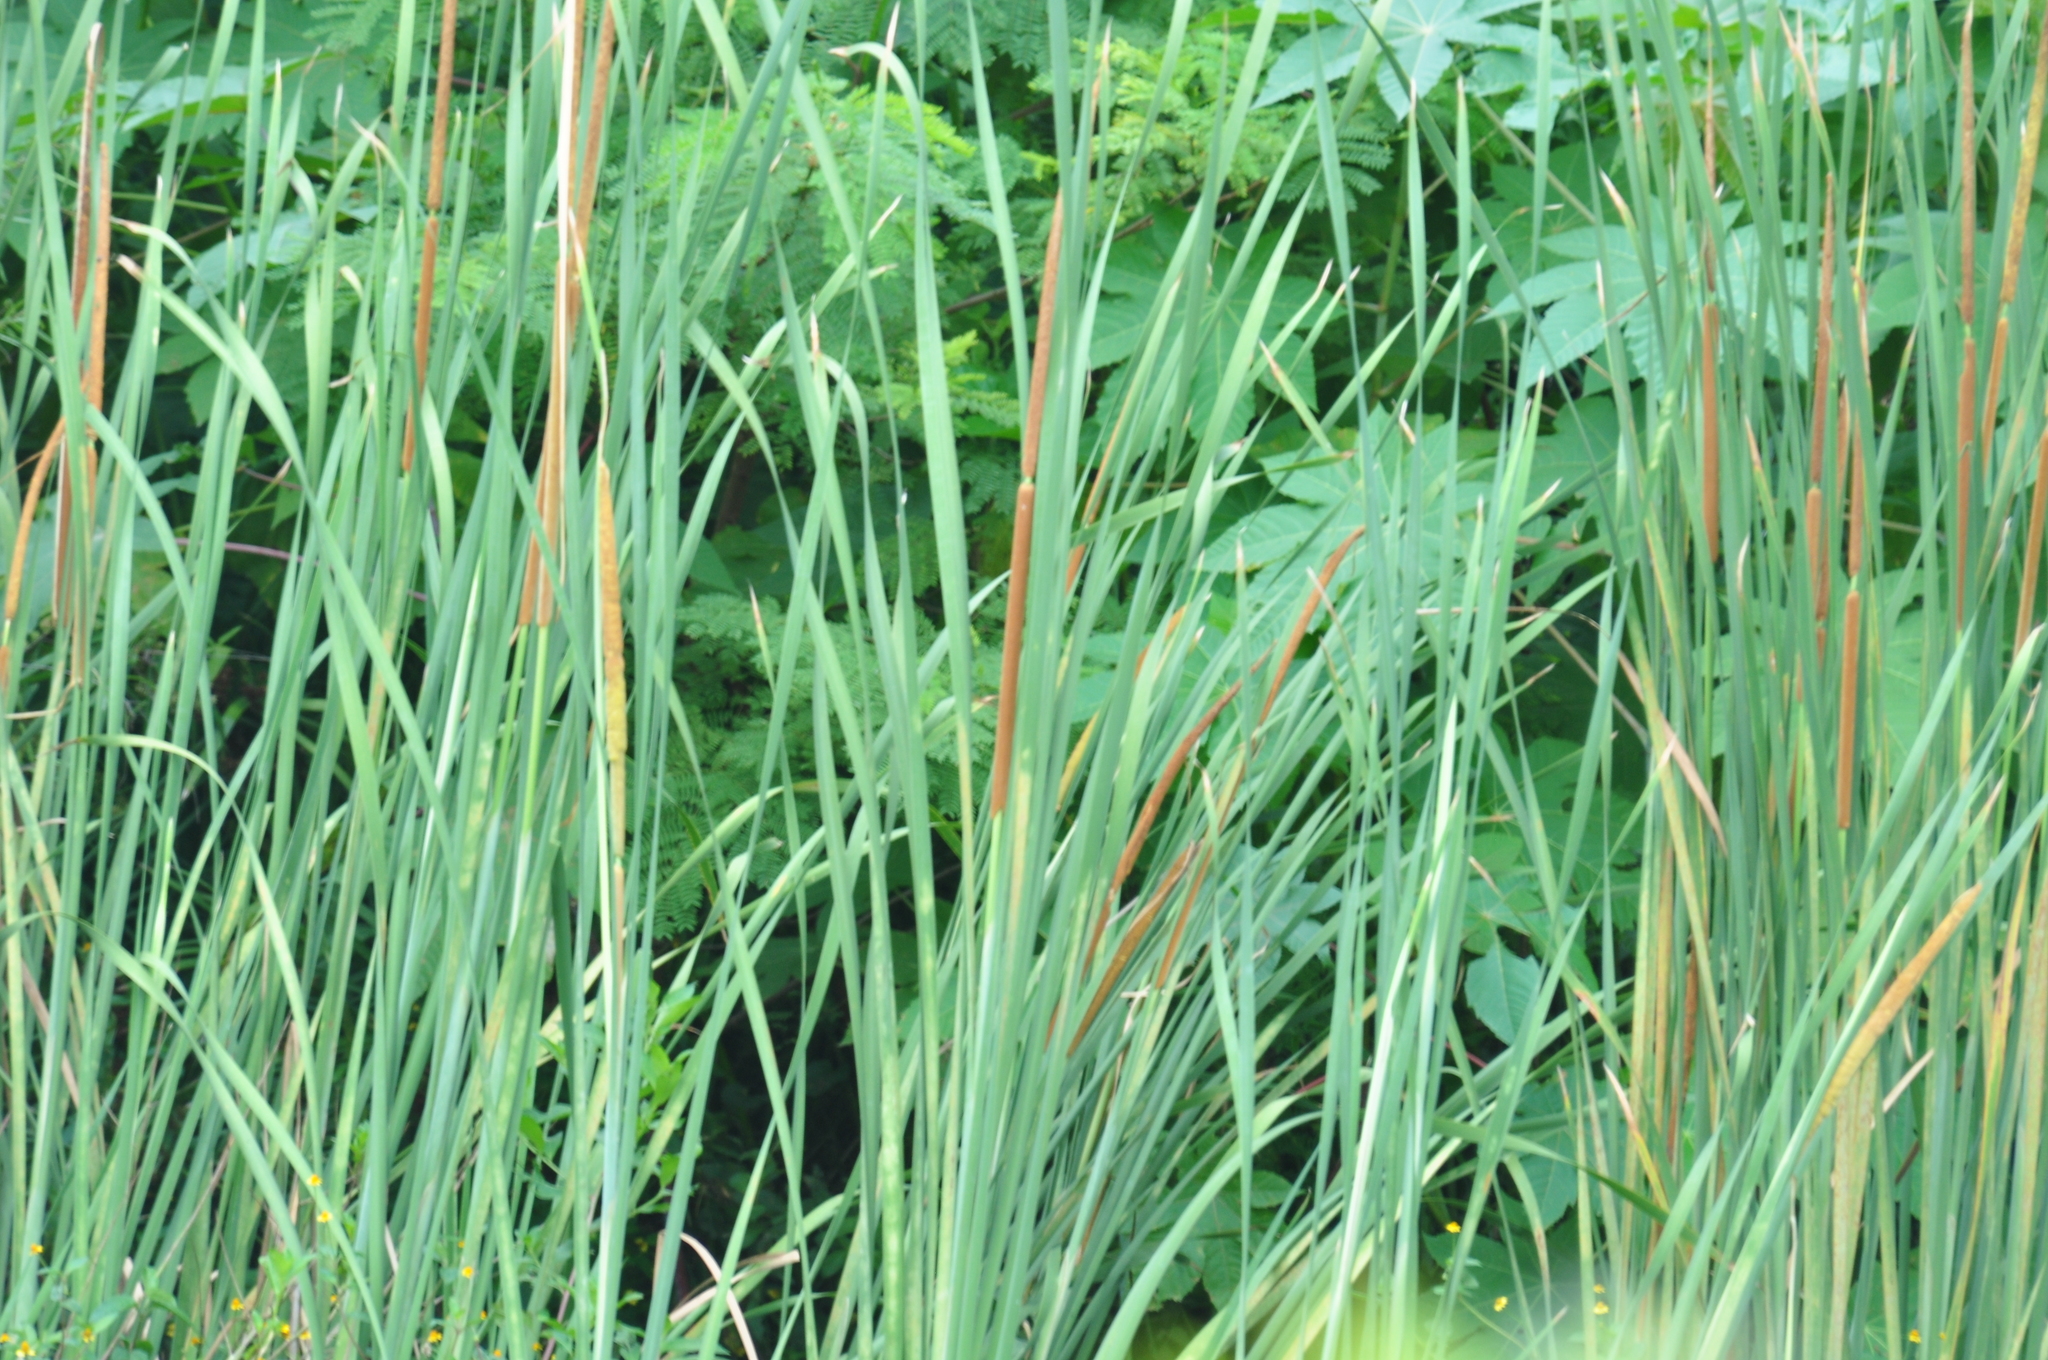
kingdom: Plantae
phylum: Tracheophyta
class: Liliopsida
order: Poales
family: Typhaceae
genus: Typha
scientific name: Typha domingensis
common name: Southern cattail
